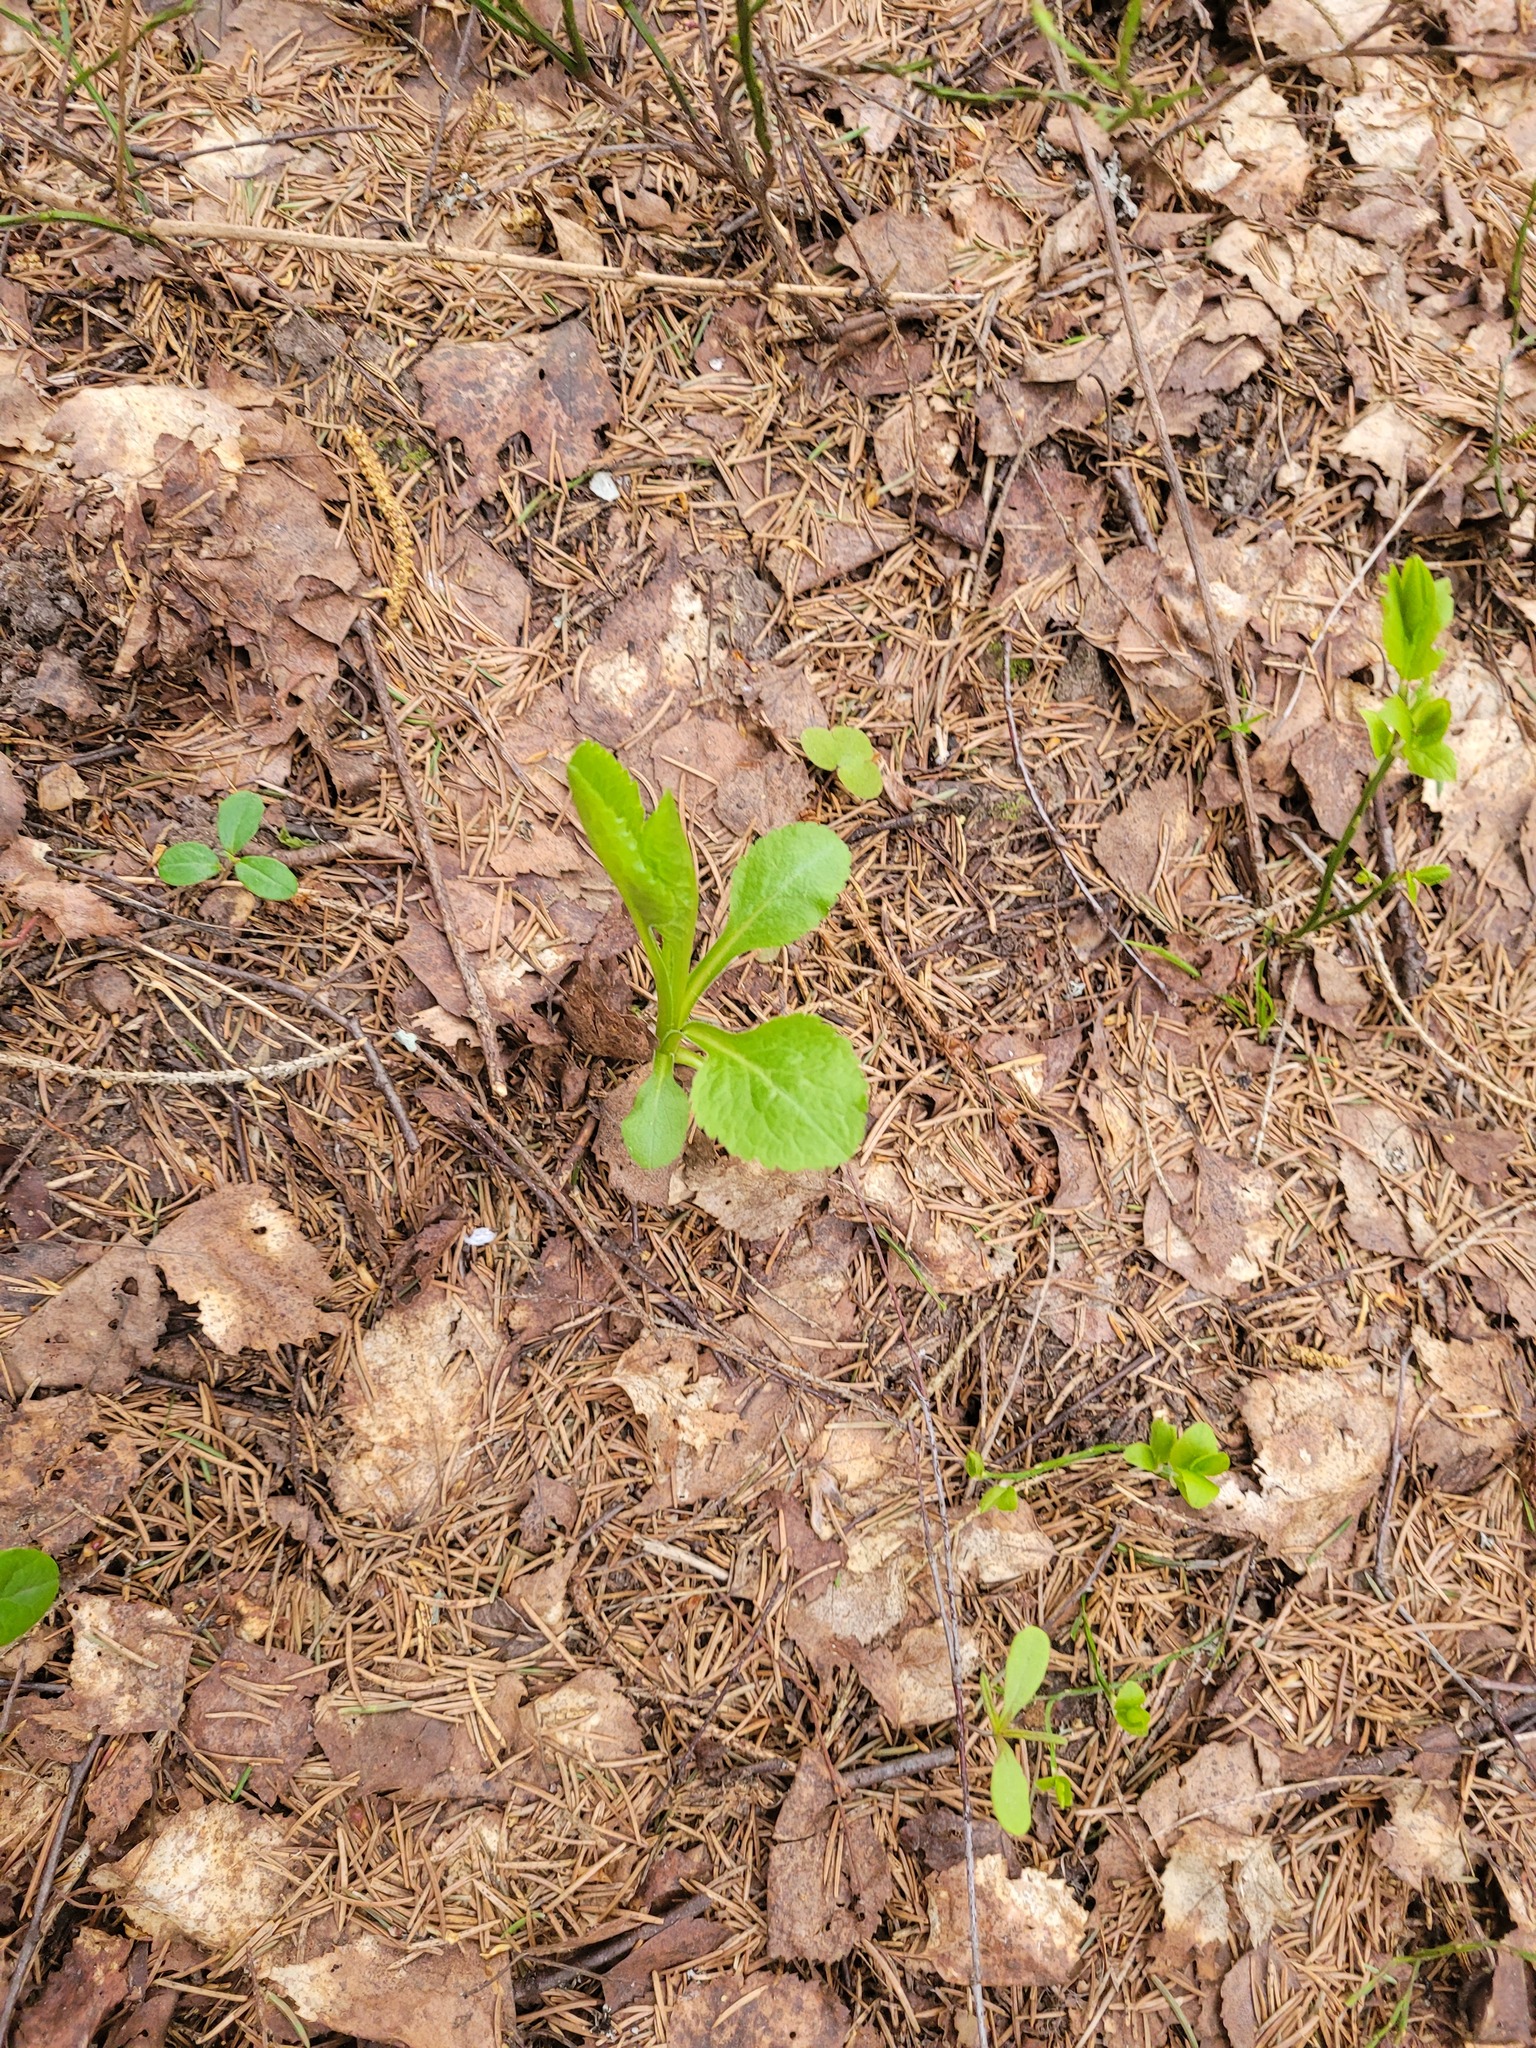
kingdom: Plantae
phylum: Tracheophyta
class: Magnoliopsida
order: Asterales
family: Asteraceae
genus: Solidago
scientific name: Solidago virgaurea
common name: Goldenrod
